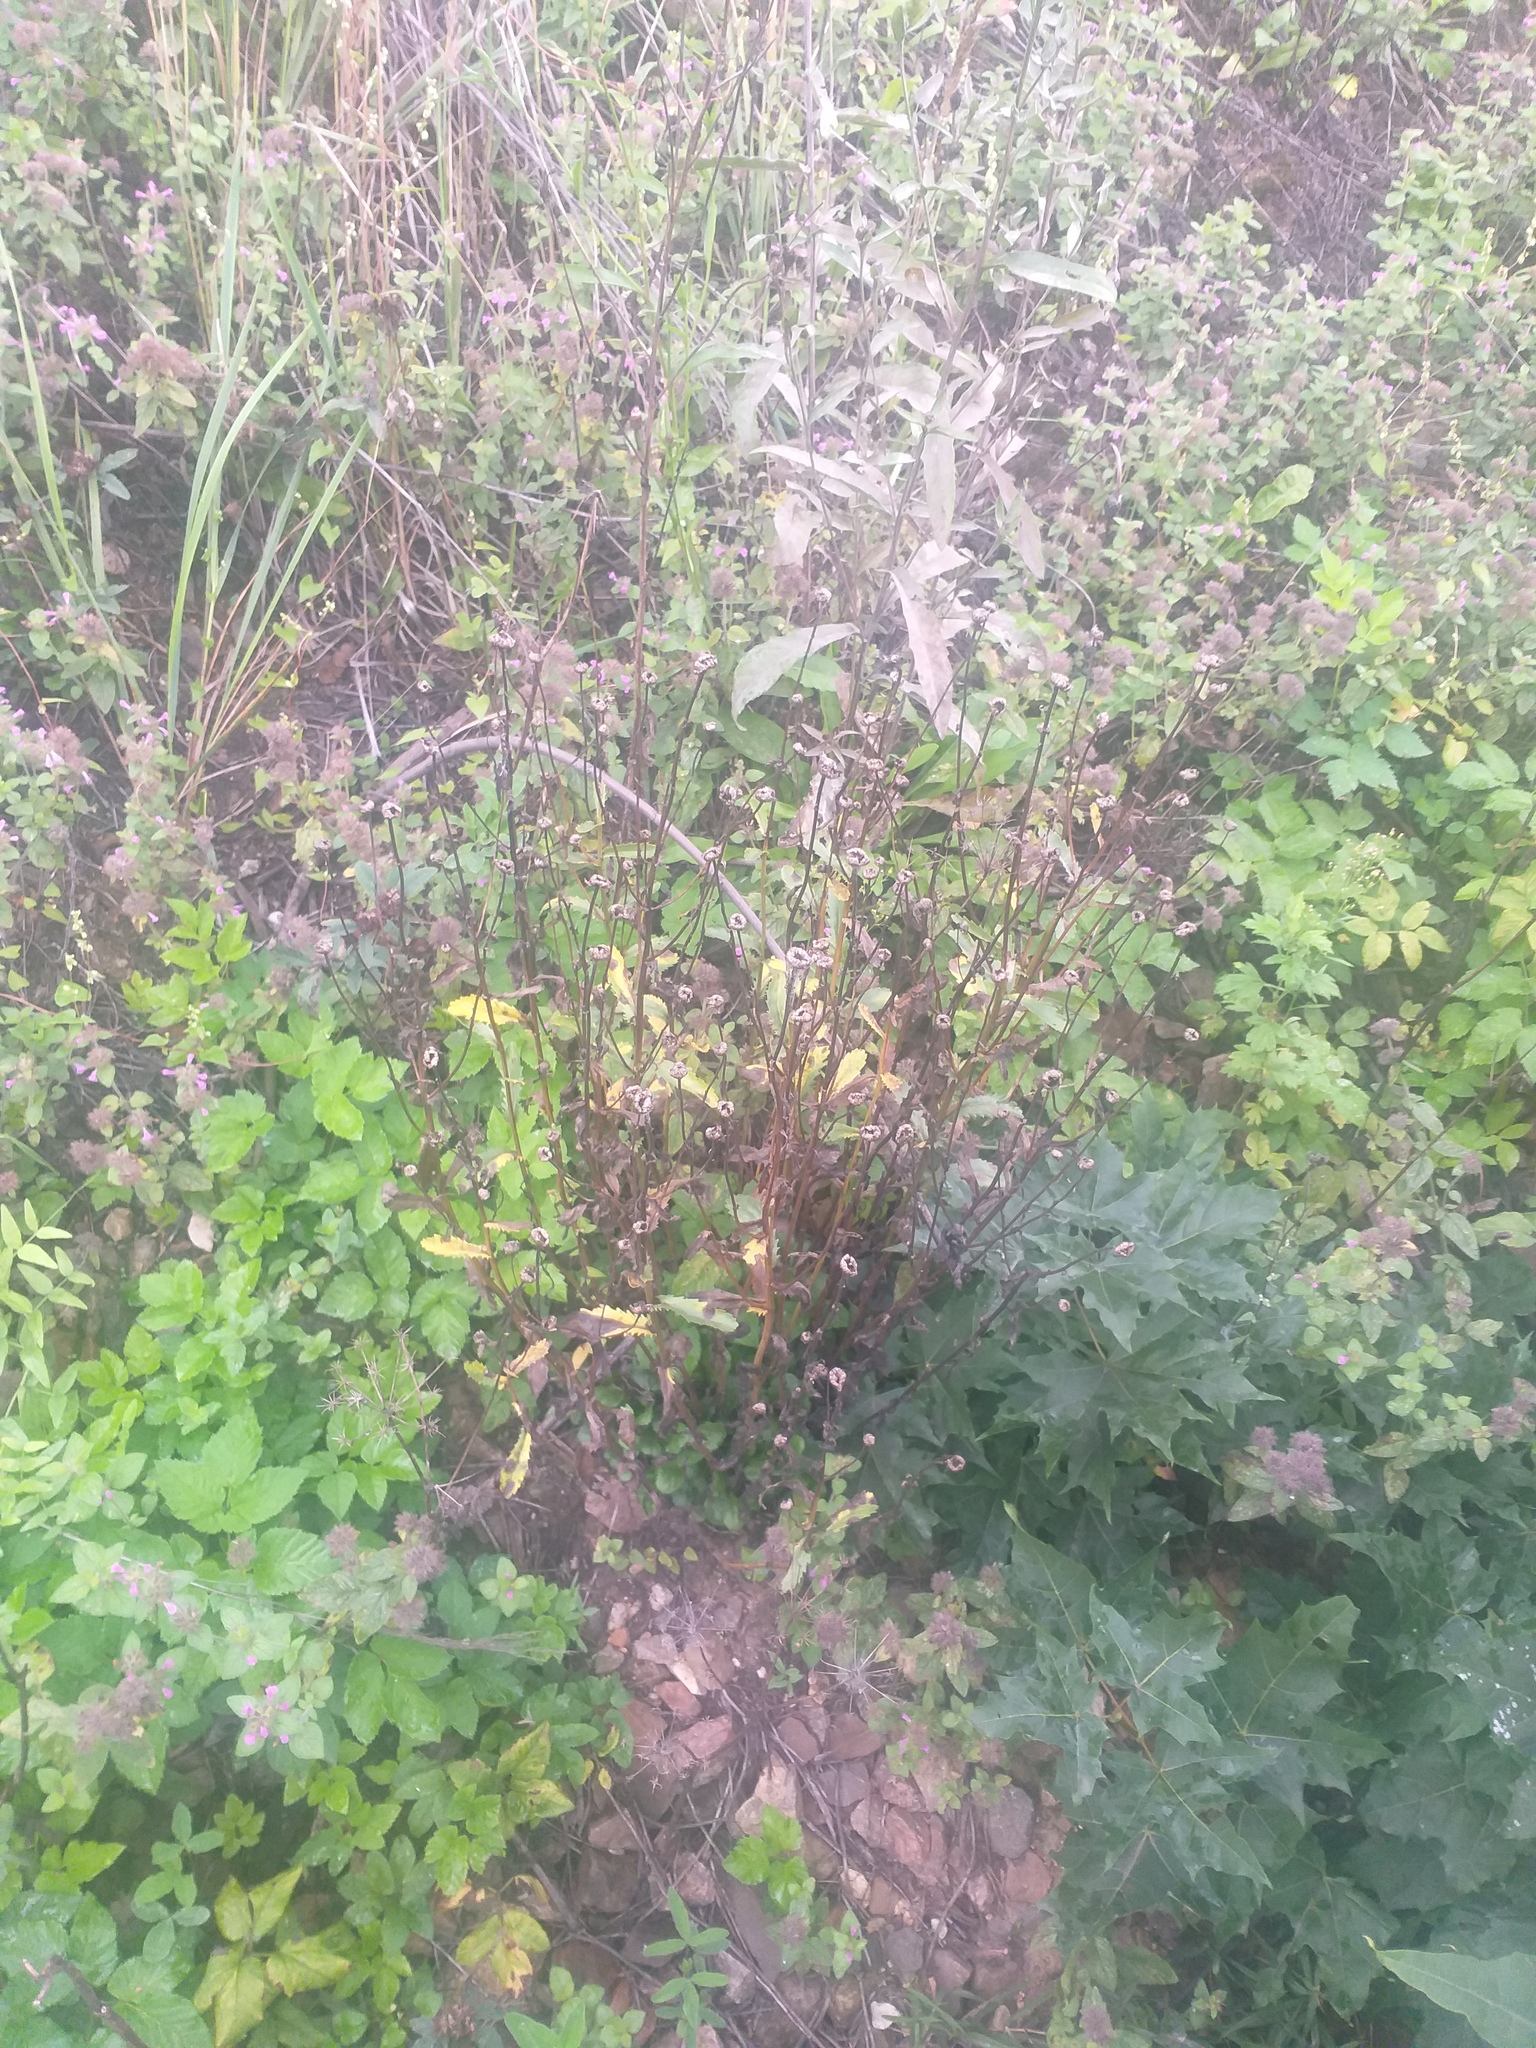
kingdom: Plantae
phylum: Tracheophyta
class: Magnoliopsida
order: Asterales
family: Asteraceae
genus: Leucanthemum
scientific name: Leucanthemum vulgare
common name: Oxeye daisy
